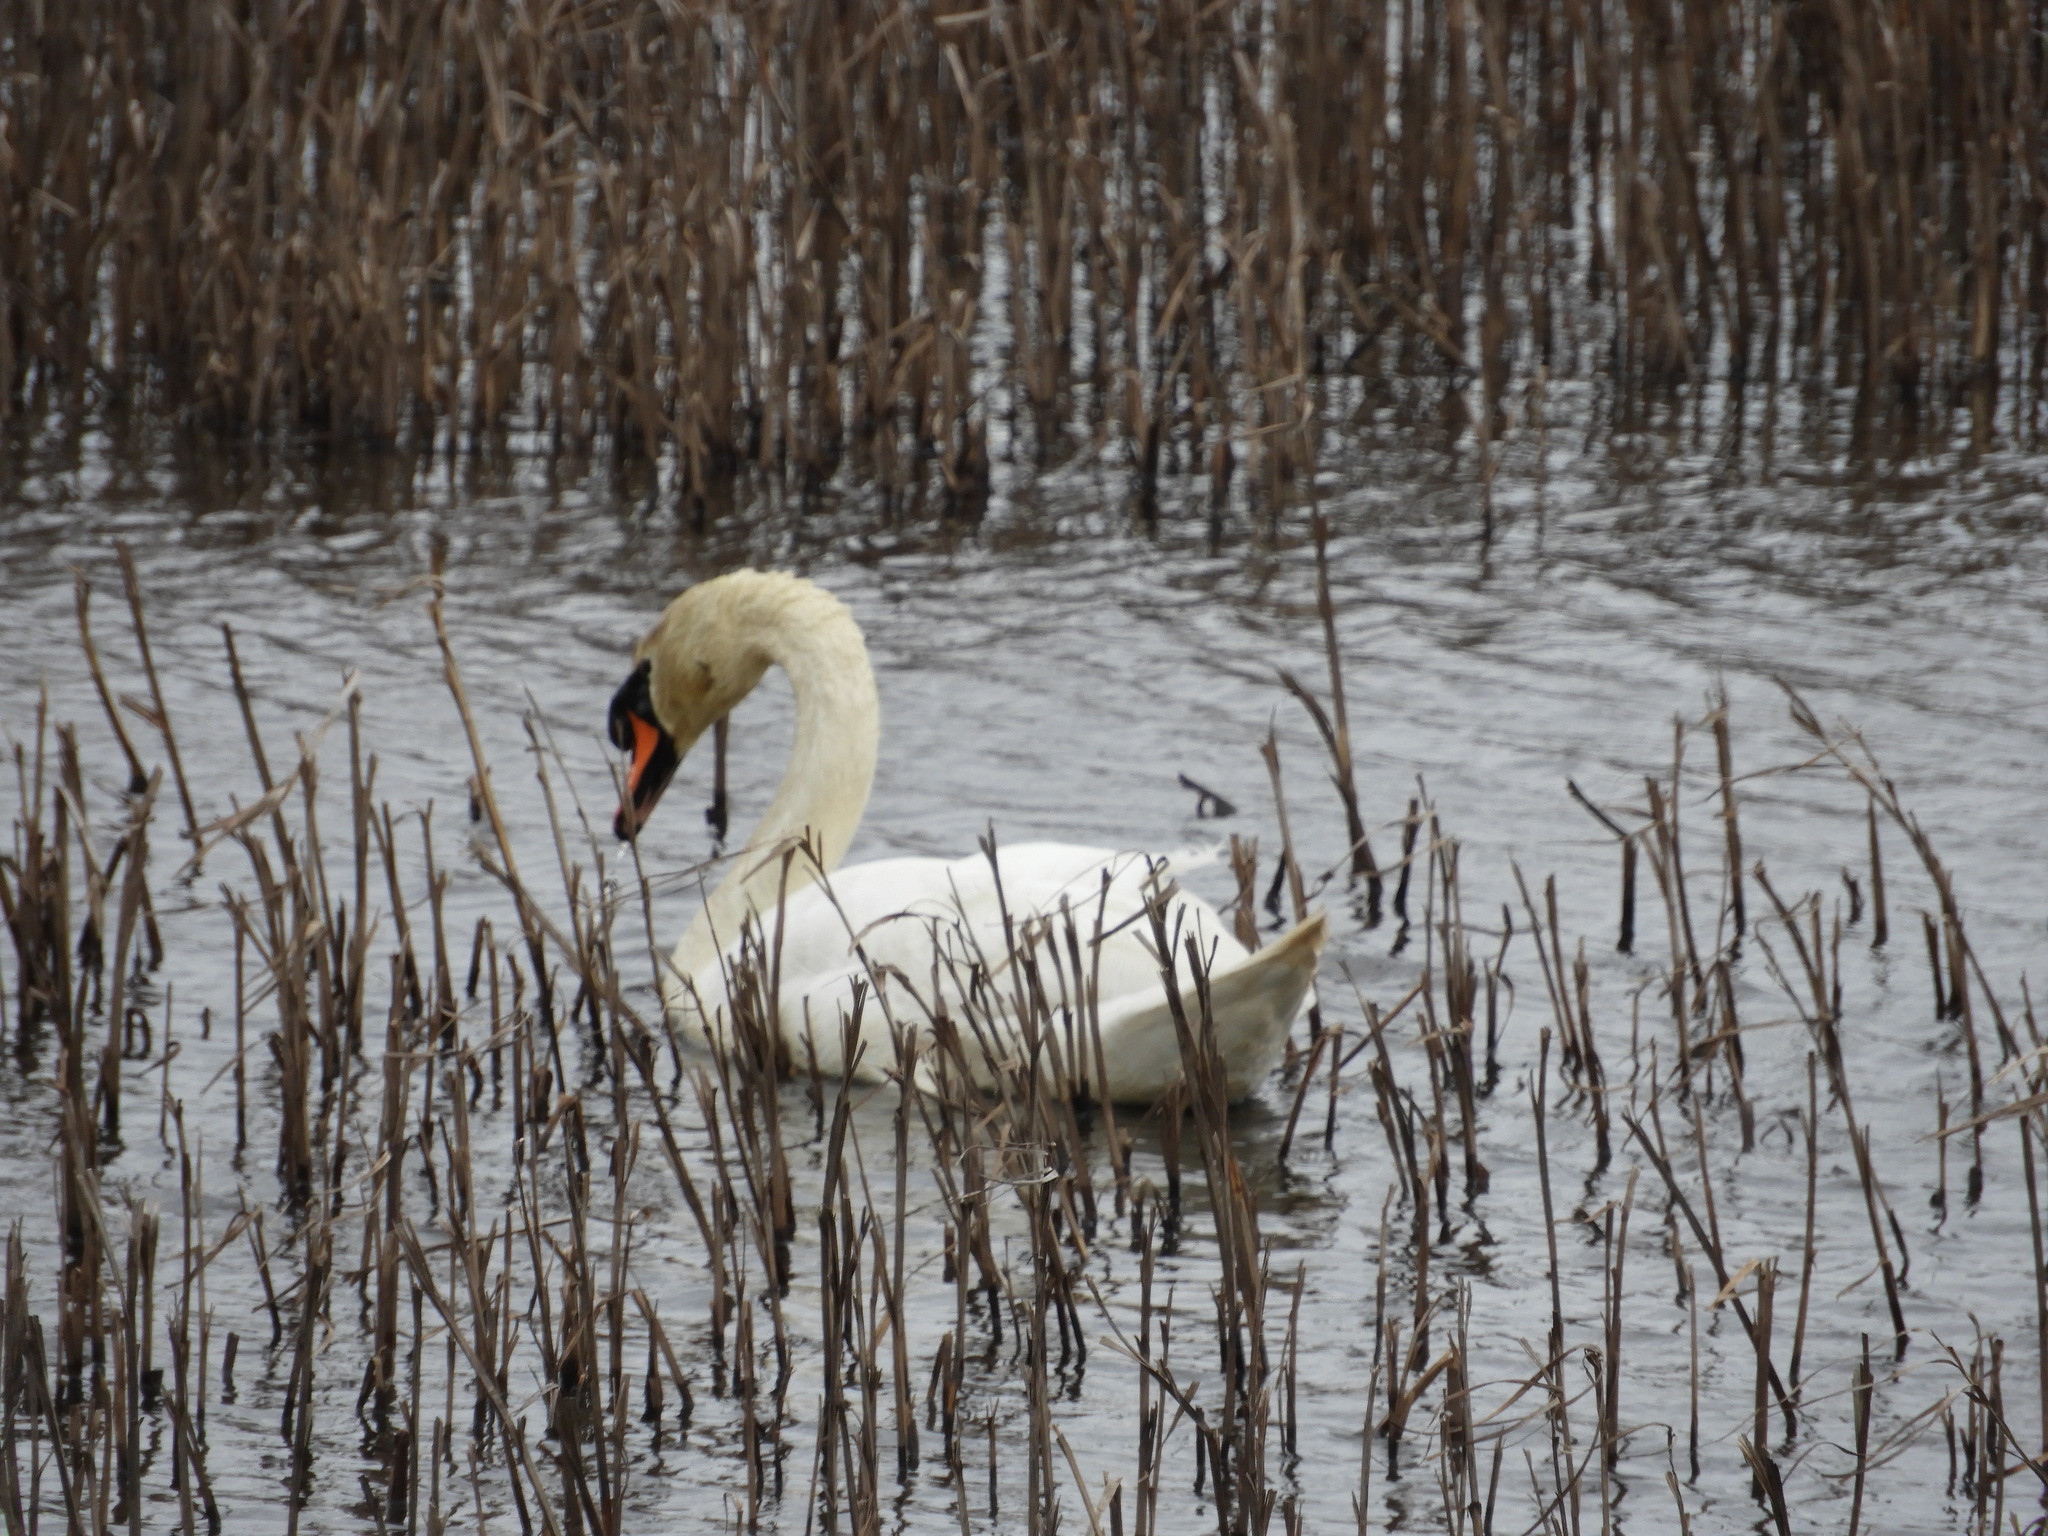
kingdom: Animalia
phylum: Chordata
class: Aves
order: Anseriformes
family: Anatidae
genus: Cygnus
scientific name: Cygnus olor
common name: Mute swan
